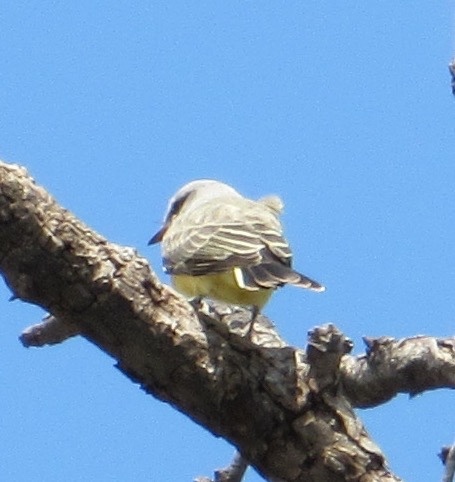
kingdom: Animalia
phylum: Chordata
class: Aves
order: Passeriformes
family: Tyrannidae
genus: Tyrannus
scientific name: Tyrannus verticalis
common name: Western kingbird
